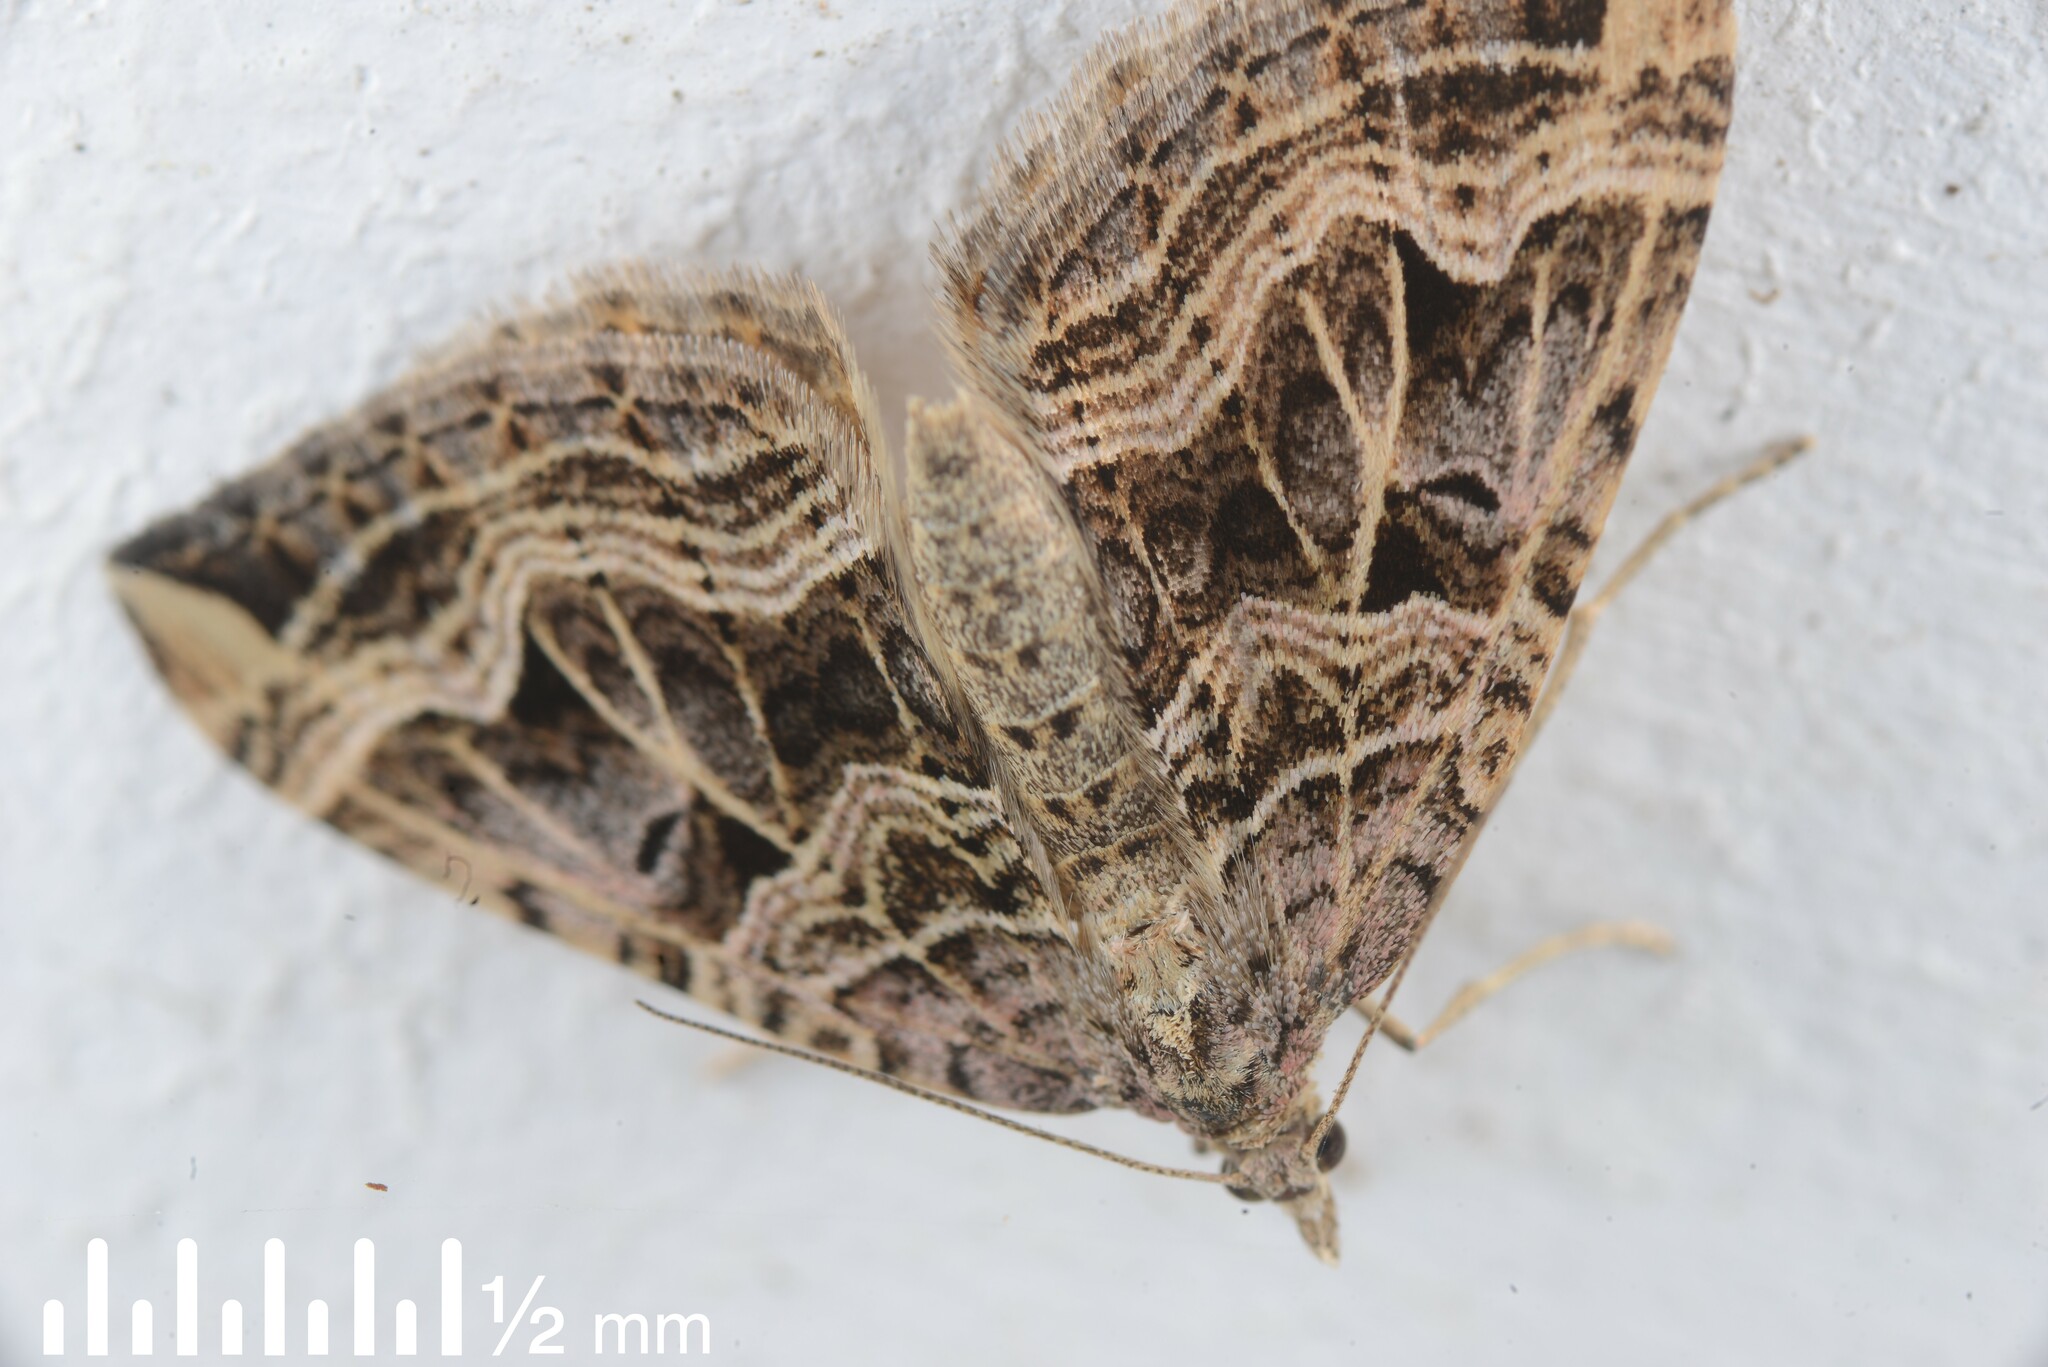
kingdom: Animalia
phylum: Arthropoda
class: Insecta
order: Lepidoptera
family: Geometridae
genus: Xanthorhoe
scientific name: Xanthorhoe semifissata
